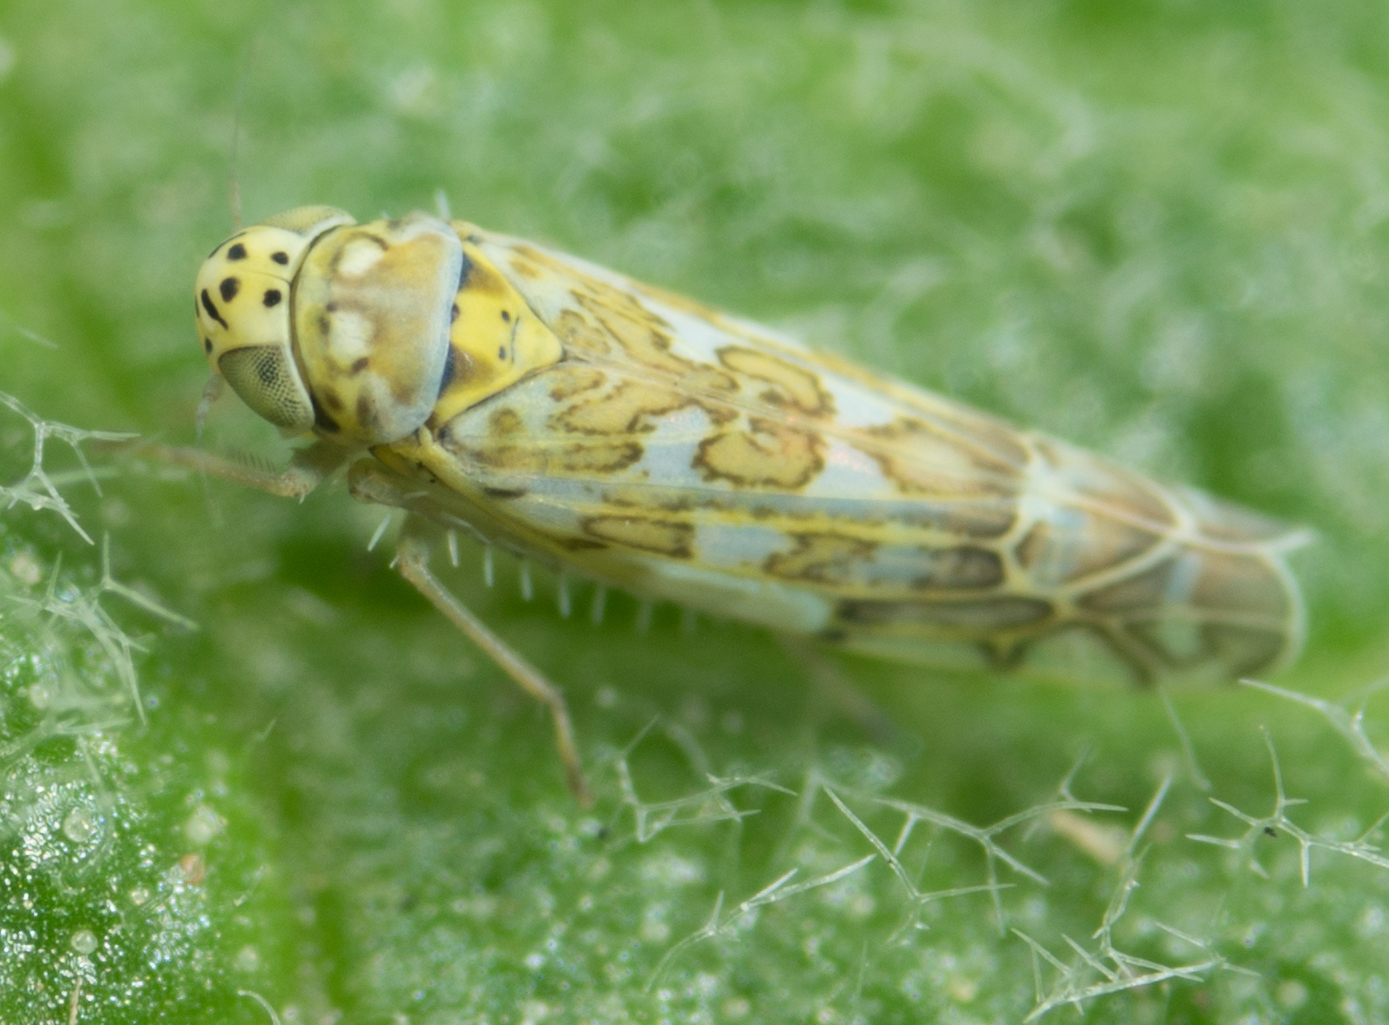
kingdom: Animalia
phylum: Arthropoda
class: Insecta
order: Hemiptera
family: Cicadellidae
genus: Eupteryx
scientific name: Eupteryx decemnotata
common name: Ligurian leafhopper
